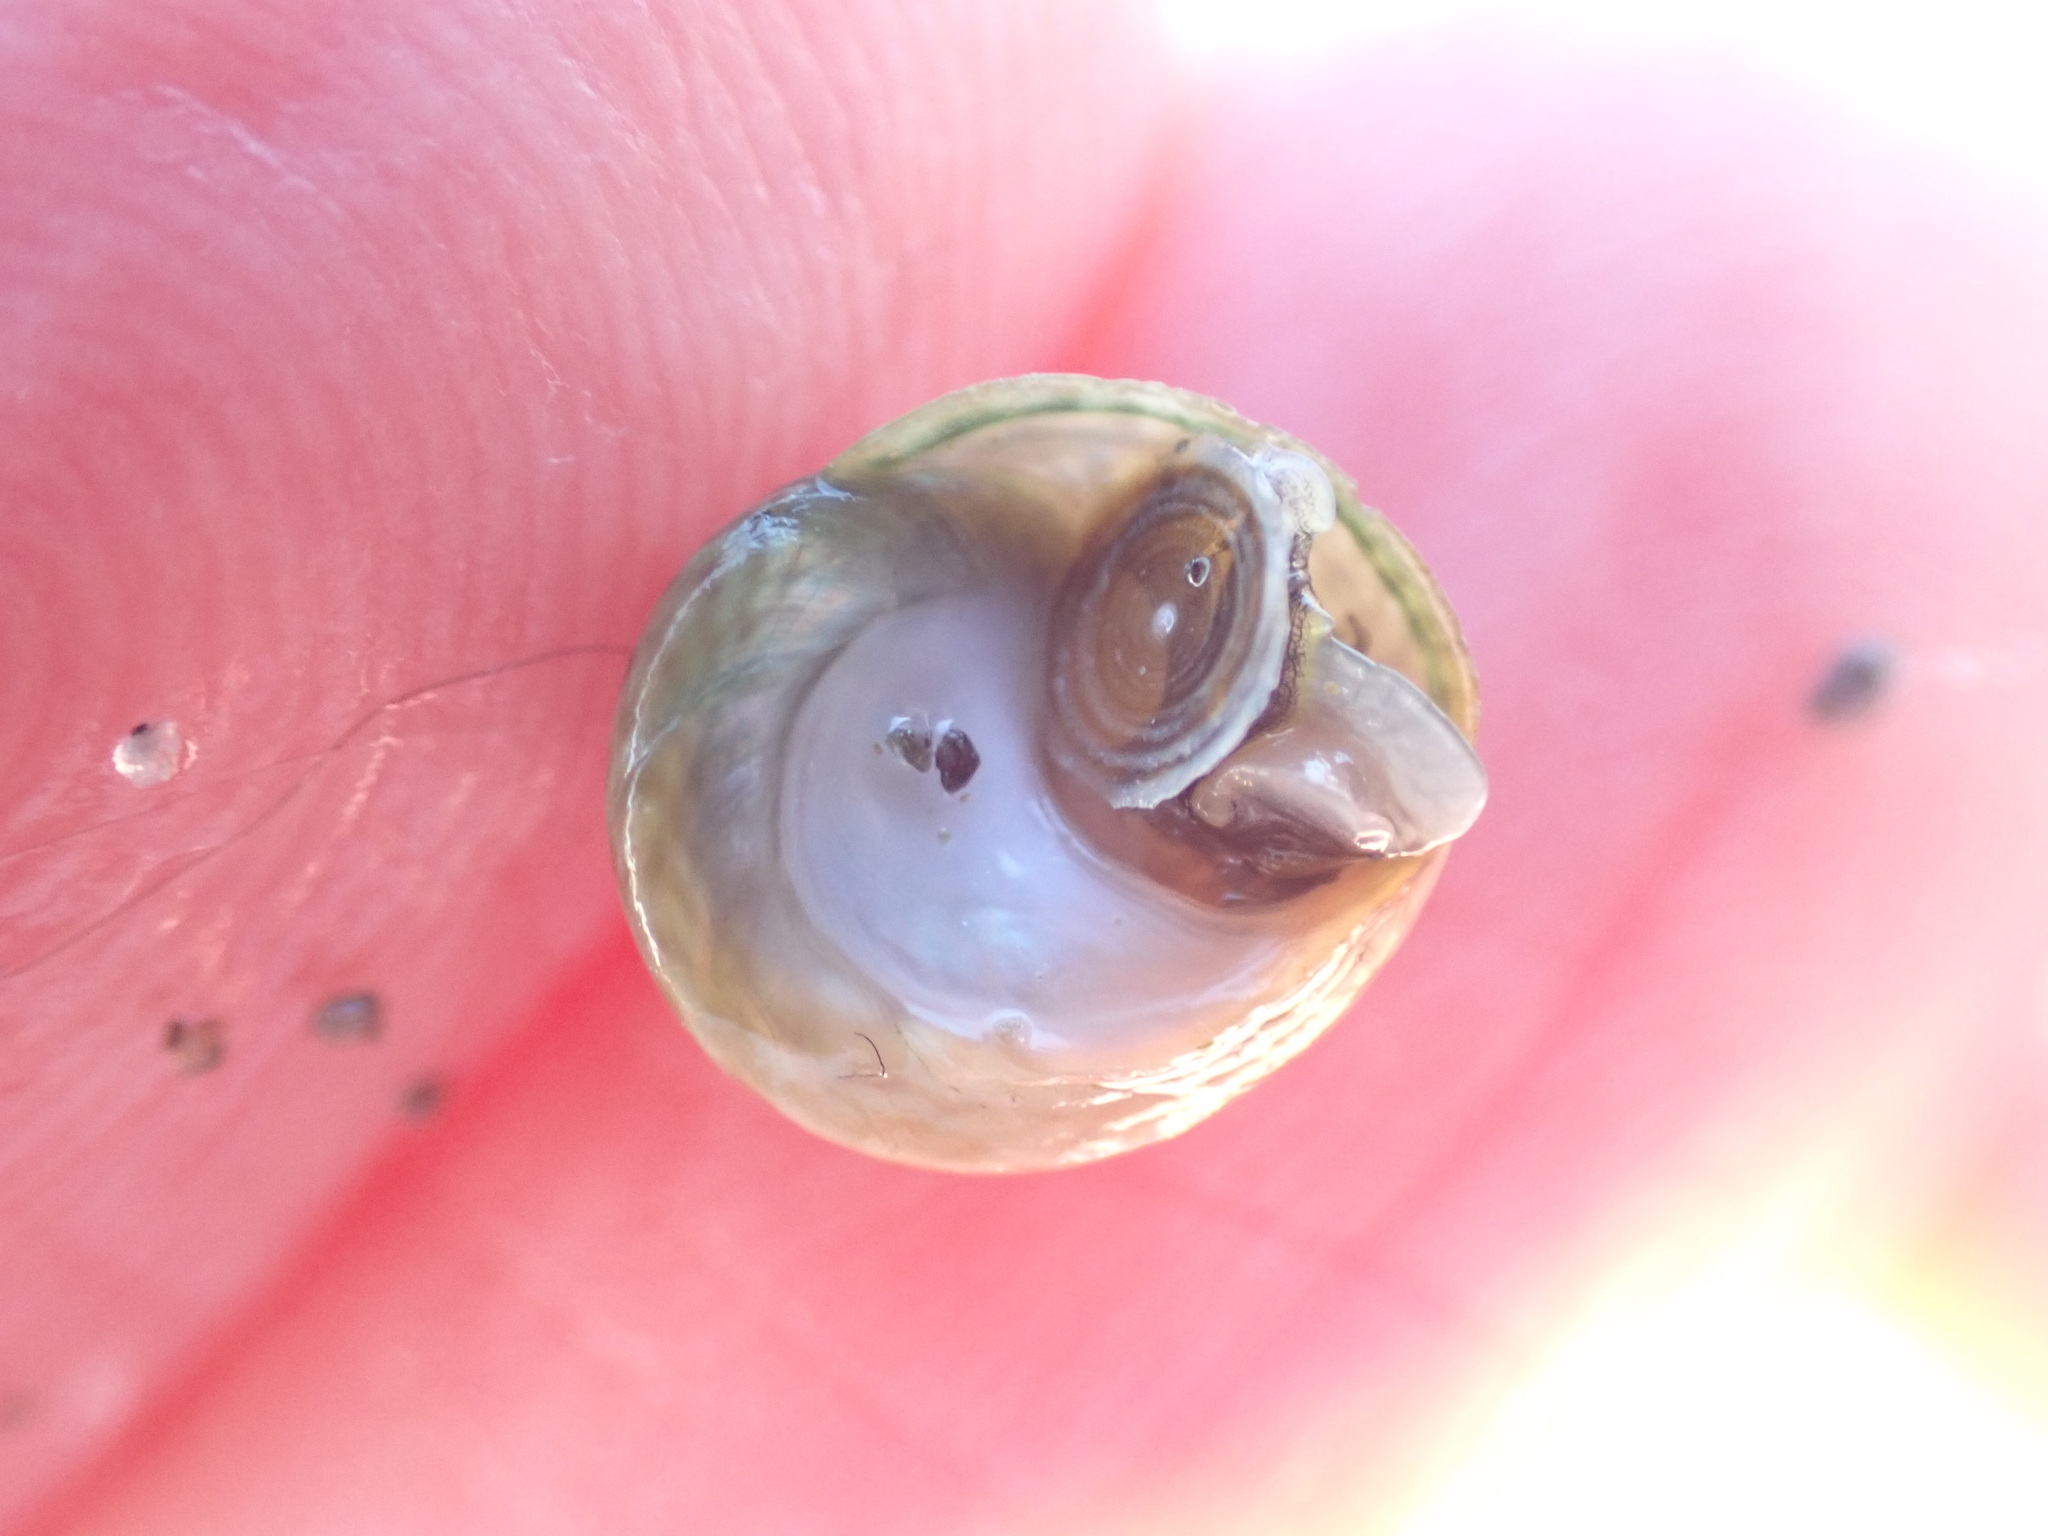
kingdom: Animalia
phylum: Mollusca
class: Gastropoda
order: Trochida
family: Trochidae
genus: Diloma
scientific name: Diloma coracinum
